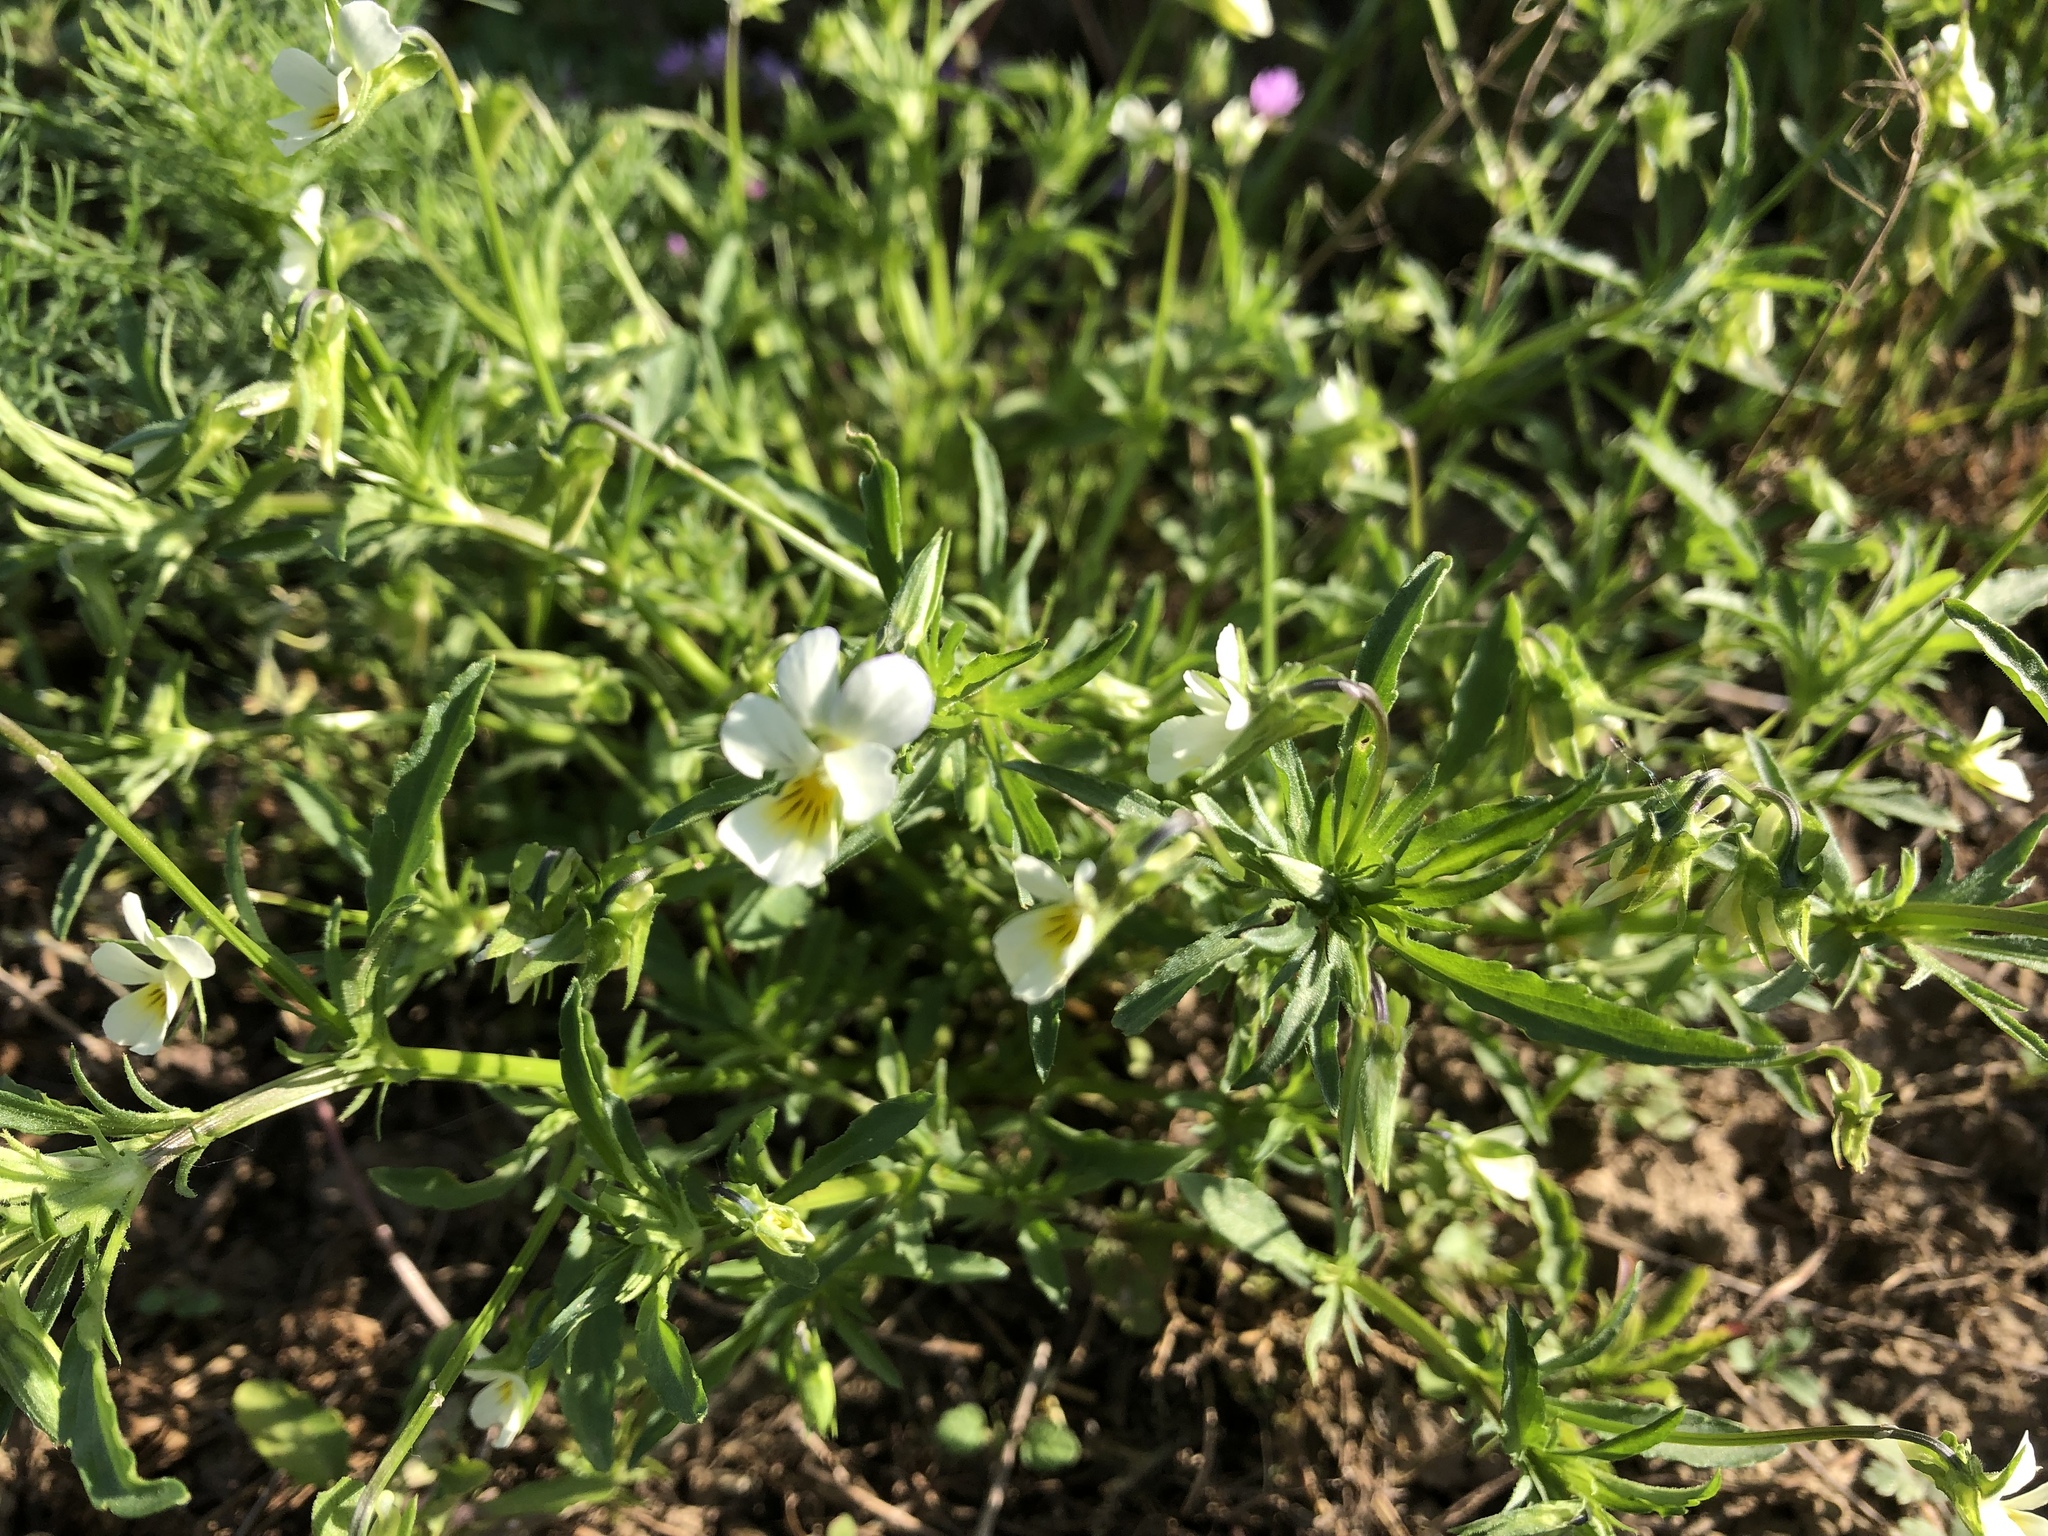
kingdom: Plantae
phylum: Tracheophyta
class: Magnoliopsida
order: Malpighiales
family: Violaceae
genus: Viola
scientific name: Viola arvensis
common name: Field pansy
